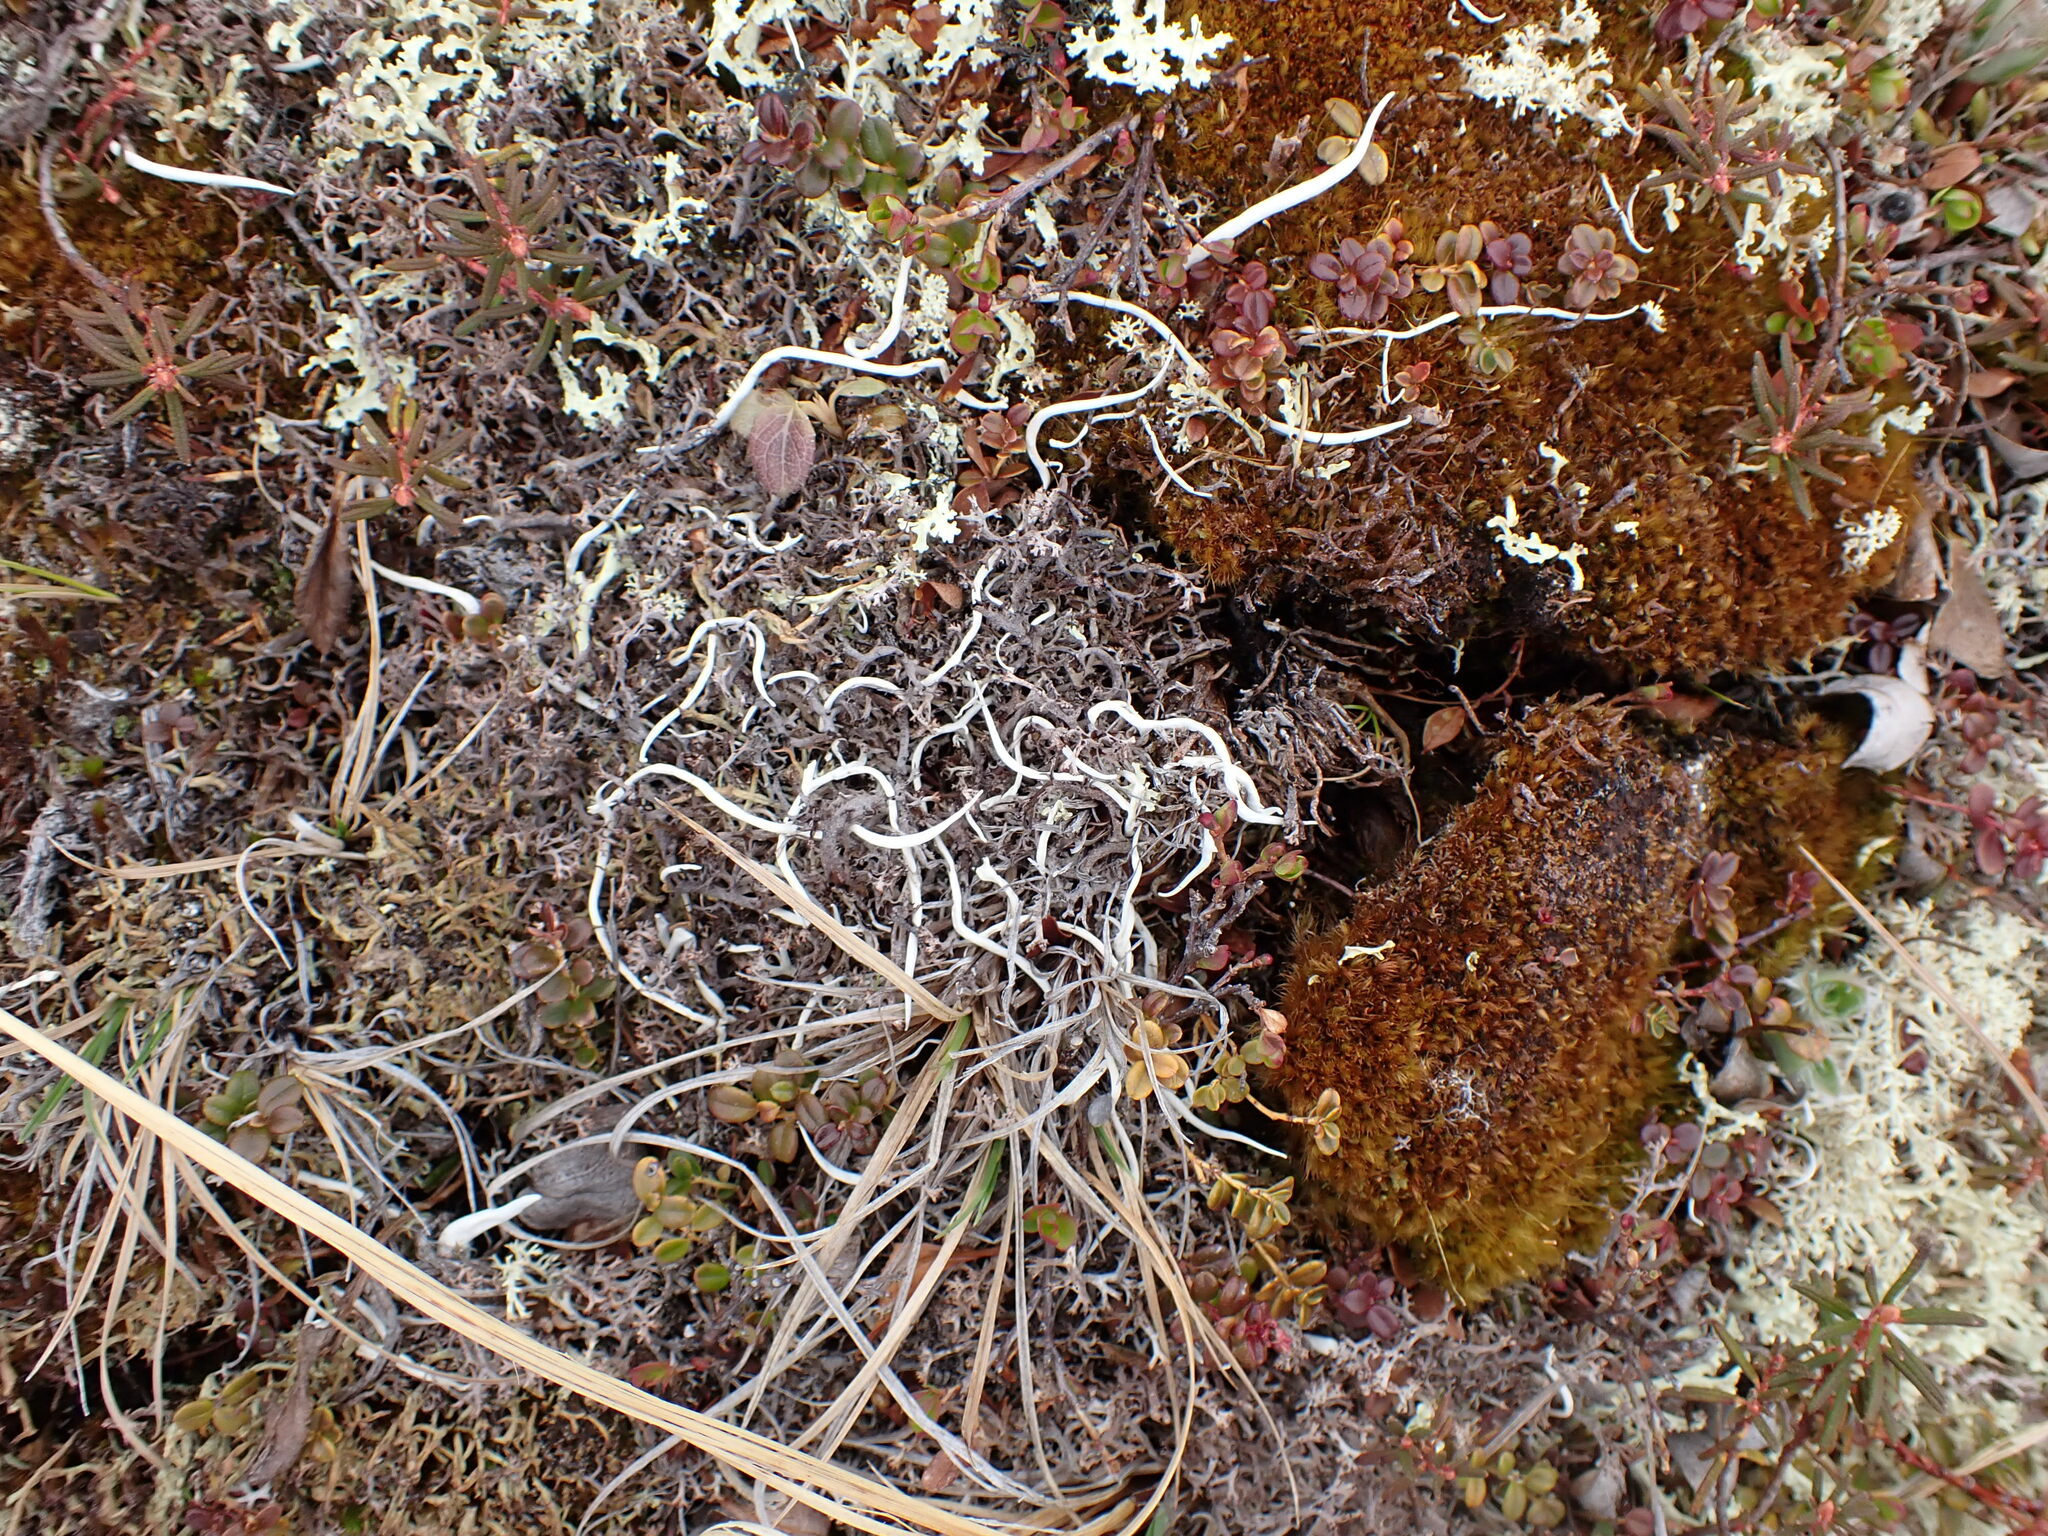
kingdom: Fungi
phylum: Ascomycota
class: Lecanoromycetes
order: Pertusariales
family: Icmadophilaceae
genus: Thamnolia
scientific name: Thamnolia vermicularis
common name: Whiteworm lichen
